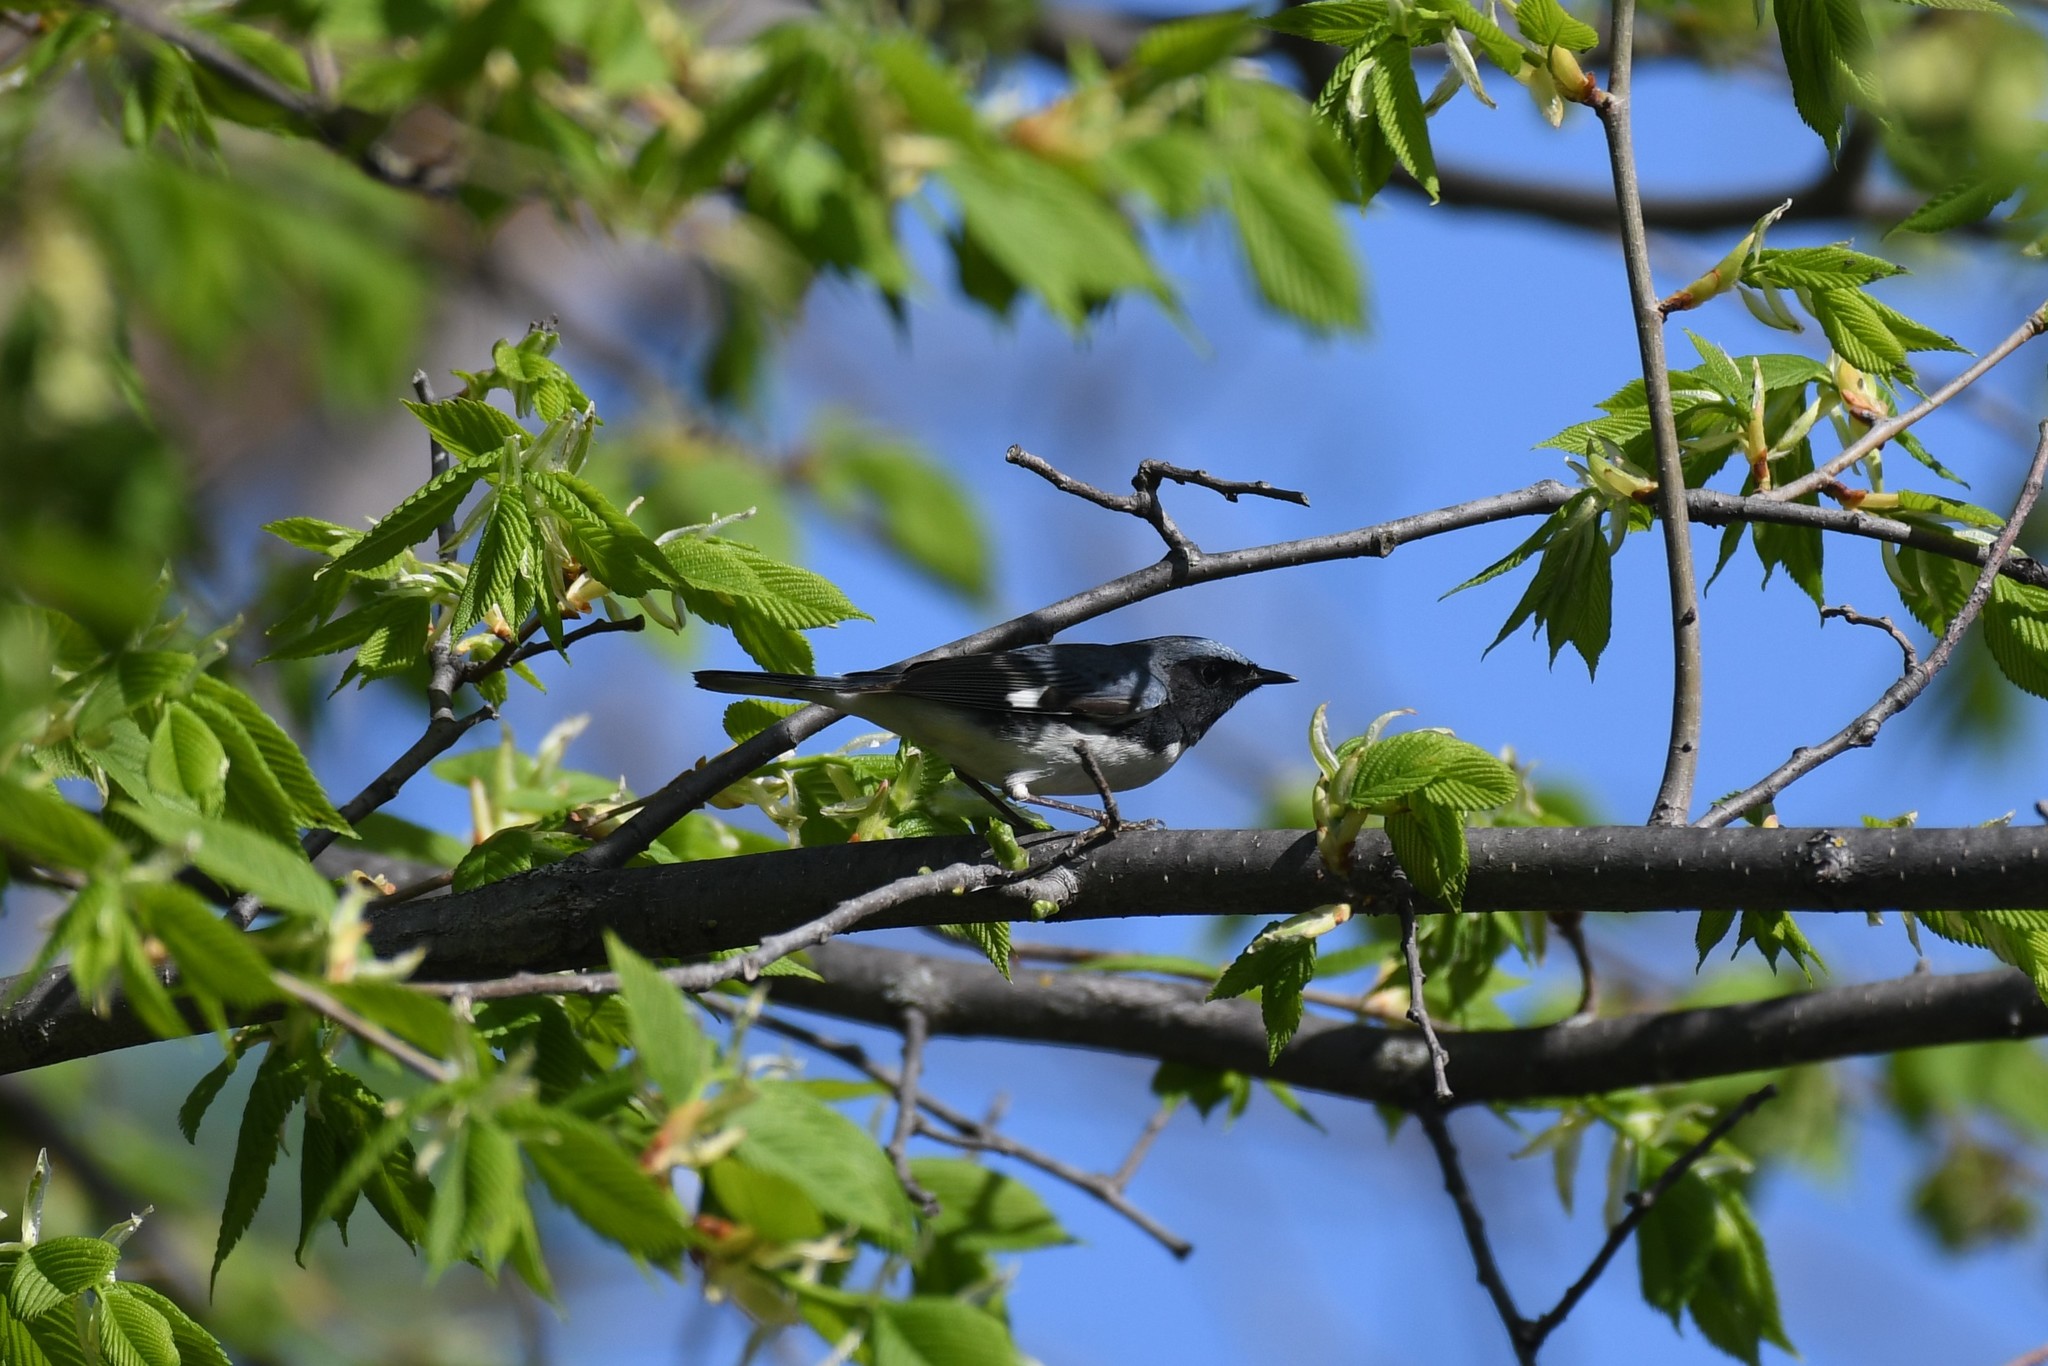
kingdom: Animalia
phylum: Chordata
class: Aves
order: Passeriformes
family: Parulidae
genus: Setophaga
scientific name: Setophaga caerulescens
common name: Black-throated blue warbler
